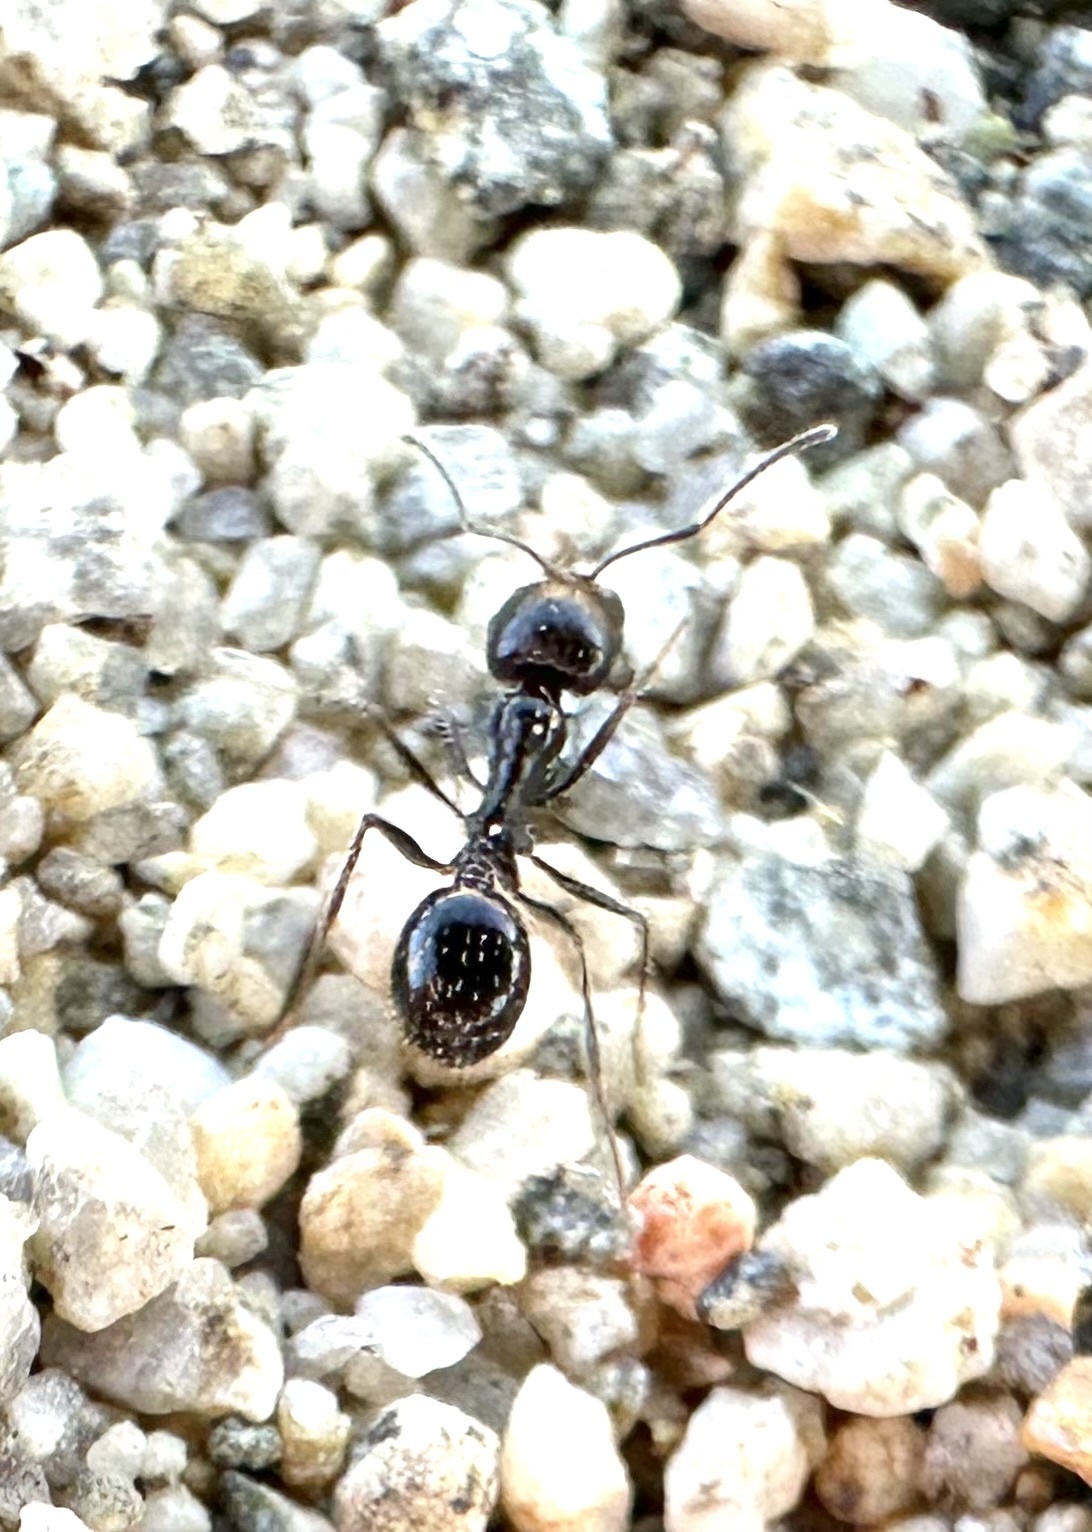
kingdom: Animalia
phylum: Arthropoda
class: Insecta
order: Hymenoptera
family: Formicidae
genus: Messor
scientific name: Messor pergandei
